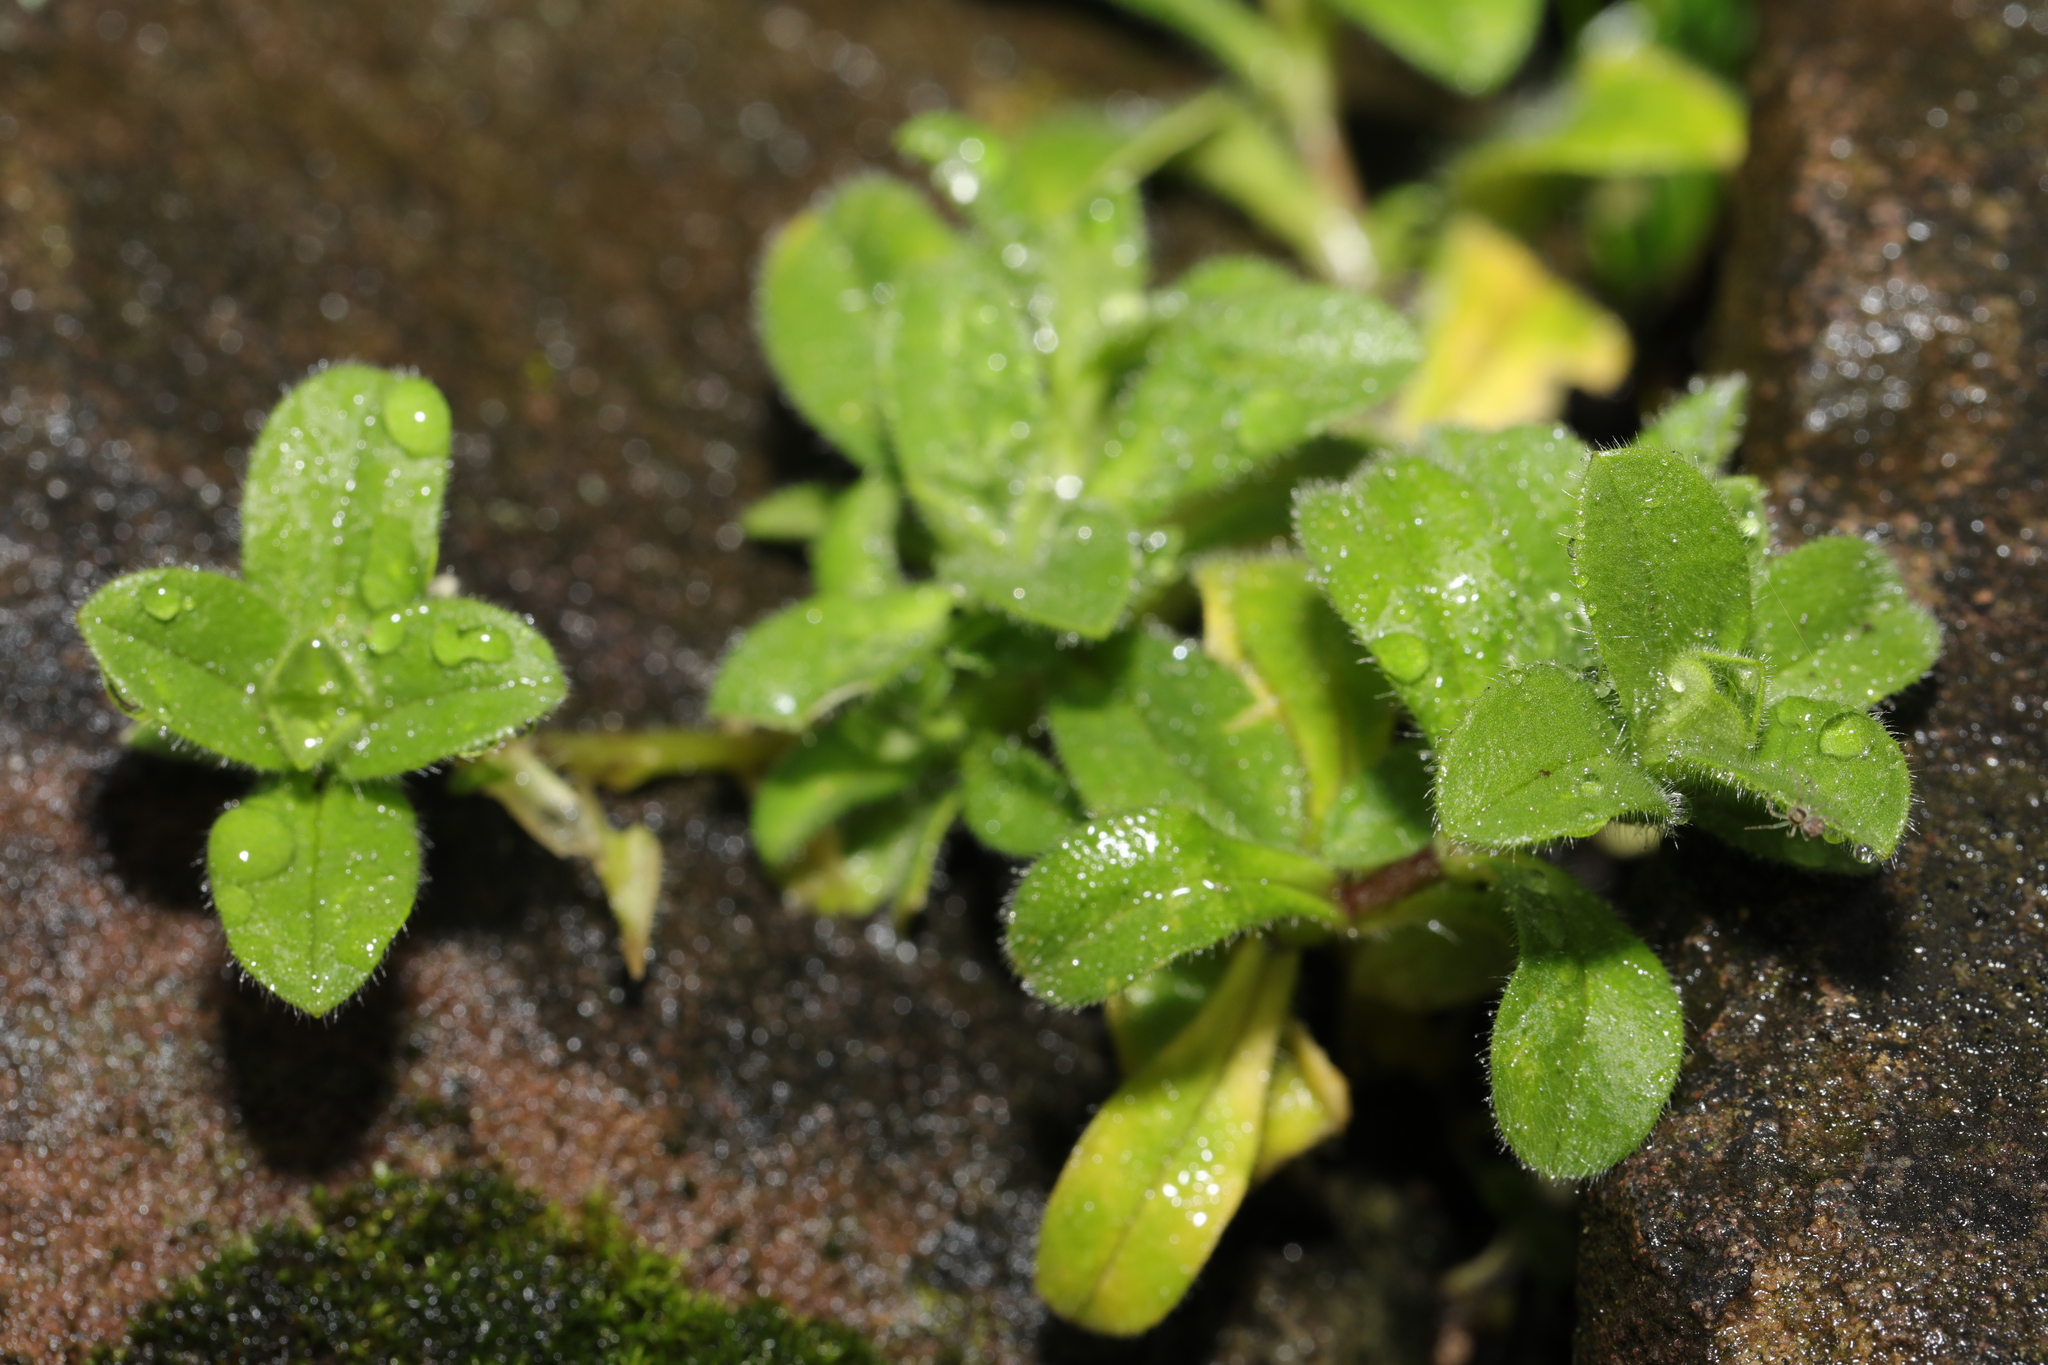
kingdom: Plantae
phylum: Tracheophyta
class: Magnoliopsida
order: Caryophyllales
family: Caryophyllaceae
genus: Cerastium
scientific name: Cerastium glomeratum
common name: Sticky chickweed
